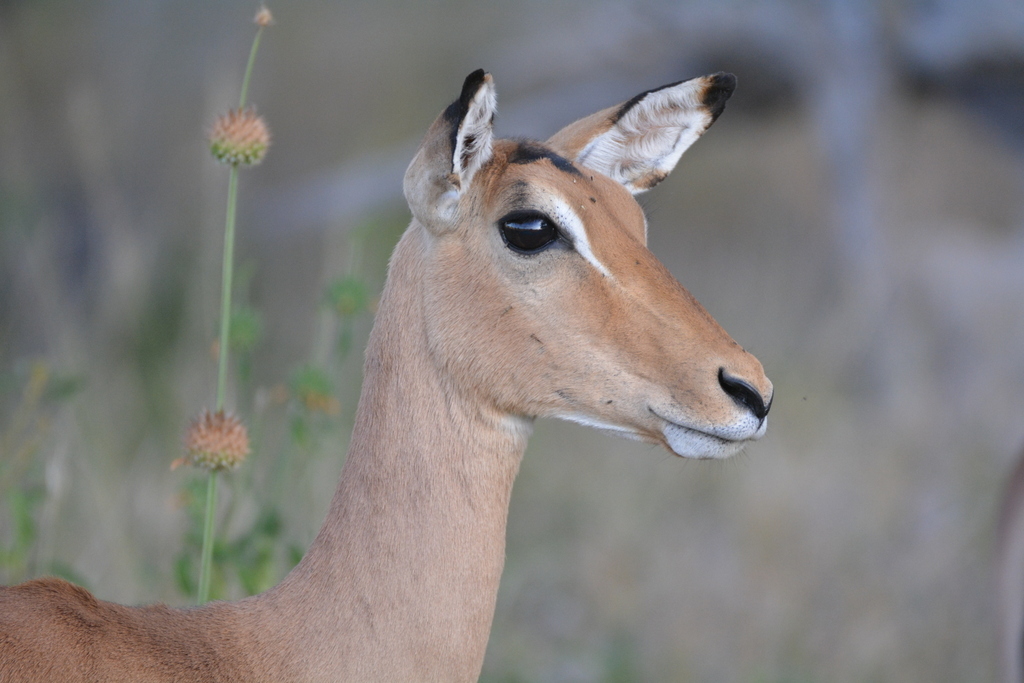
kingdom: Animalia
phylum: Chordata
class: Mammalia
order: Artiodactyla
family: Bovidae
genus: Aepyceros
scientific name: Aepyceros melampus
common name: Impala
